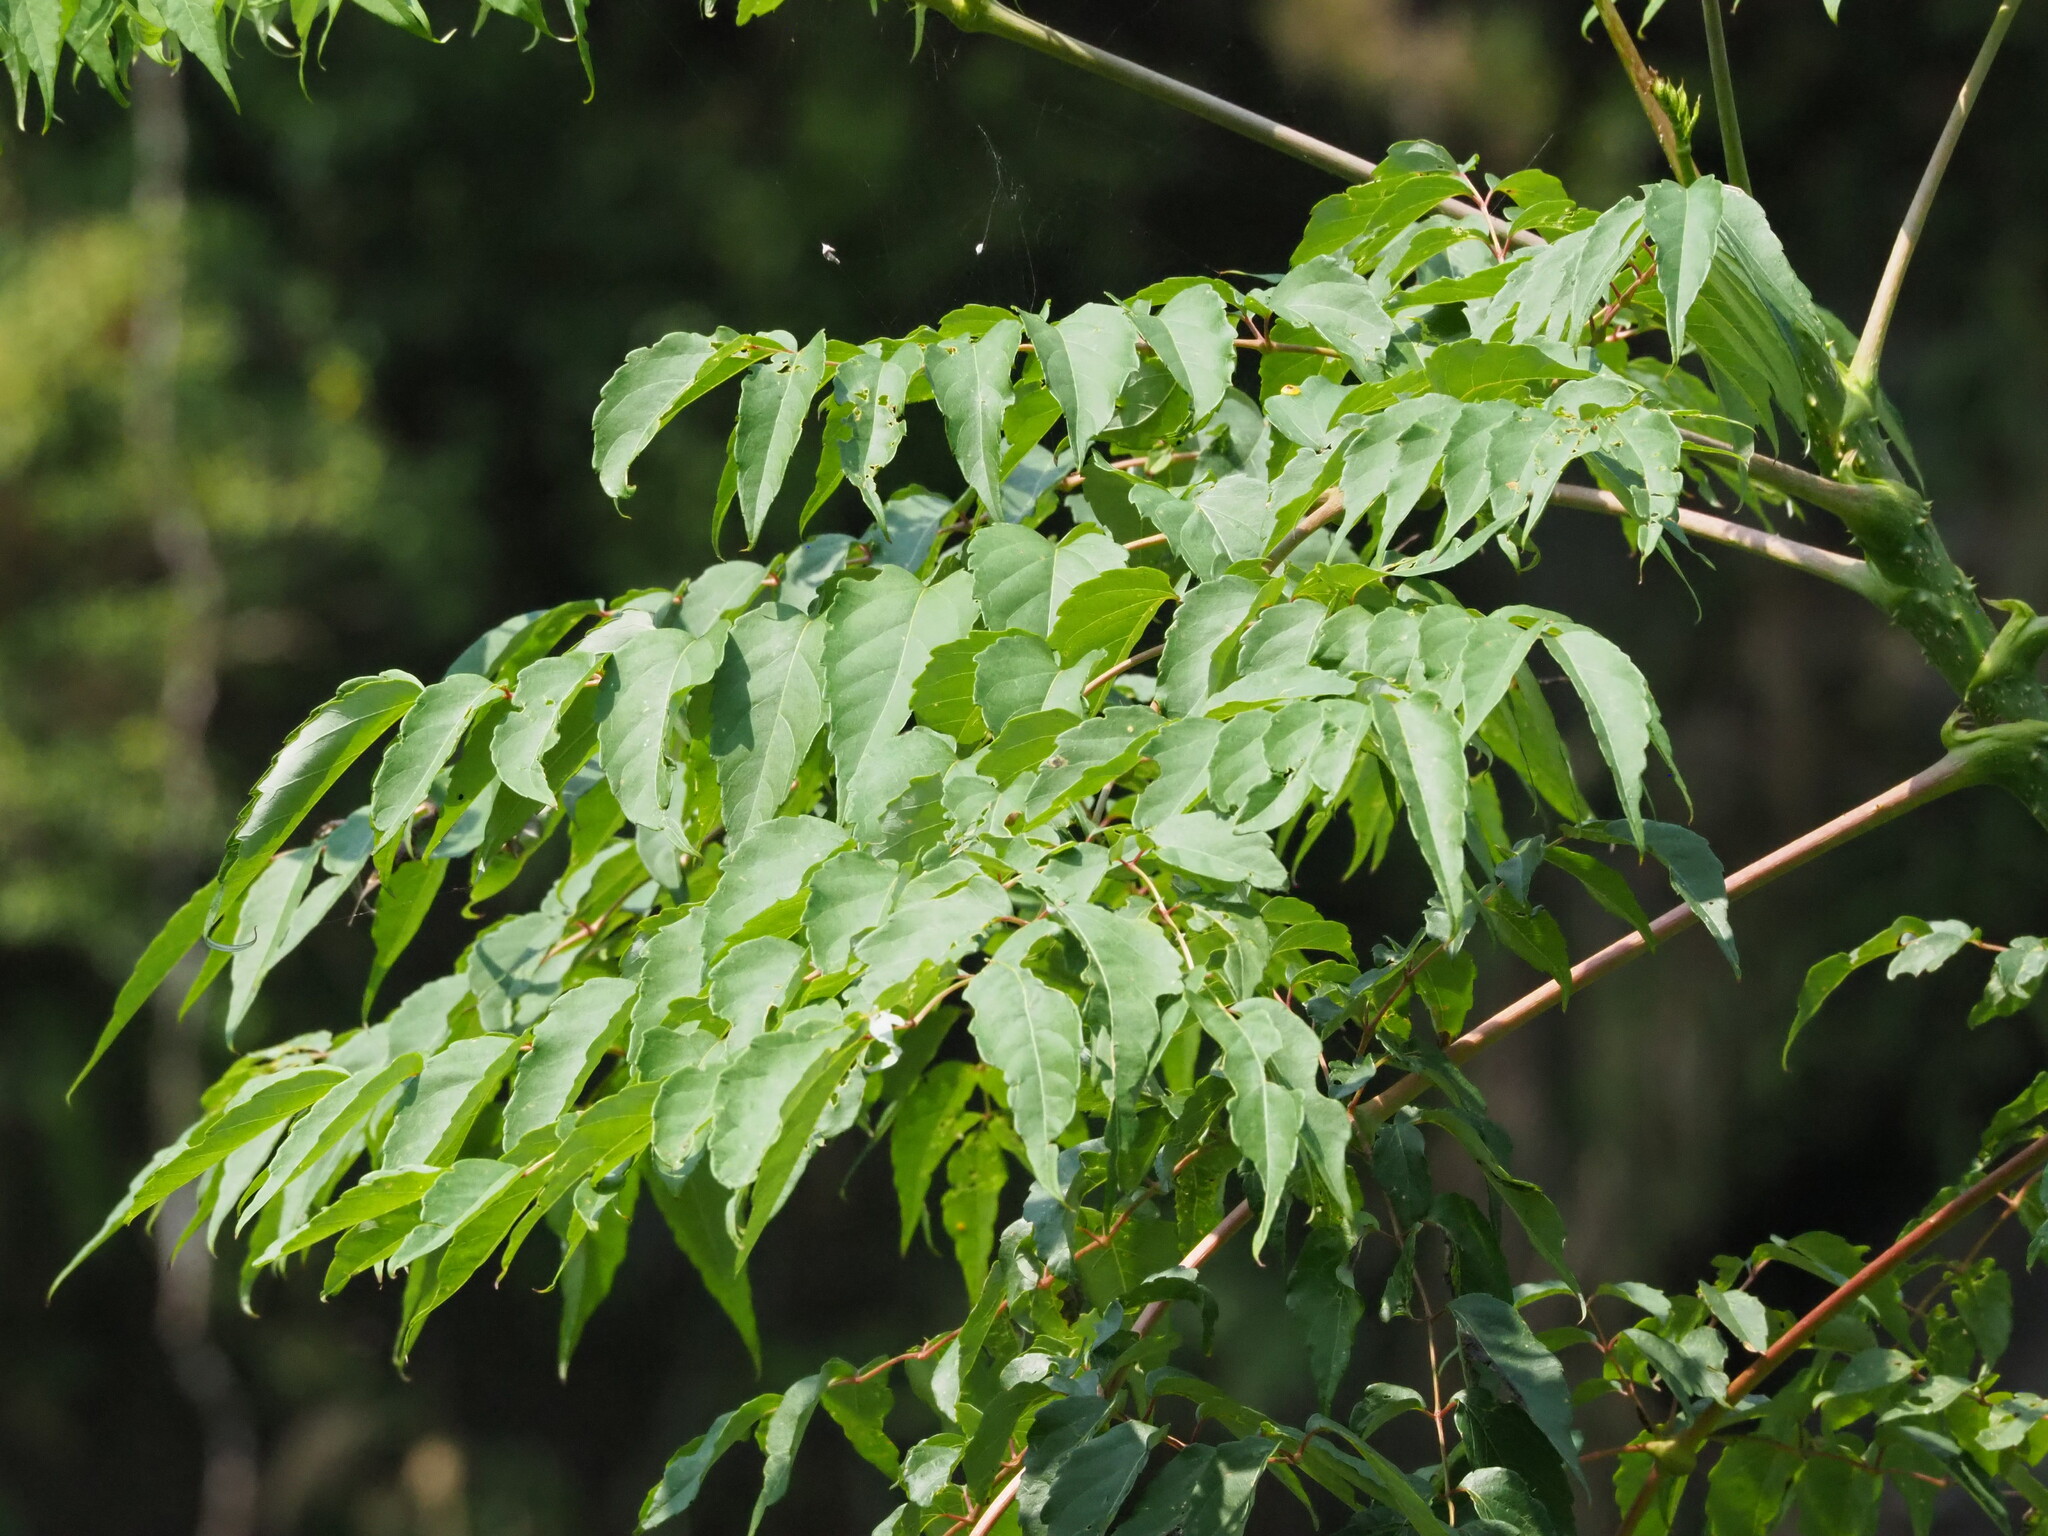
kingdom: Plantae
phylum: Tracheophyta
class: Magnoliopsida
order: Apiales
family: Araliaceae
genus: Aralia
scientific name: Aralia bipinnata
